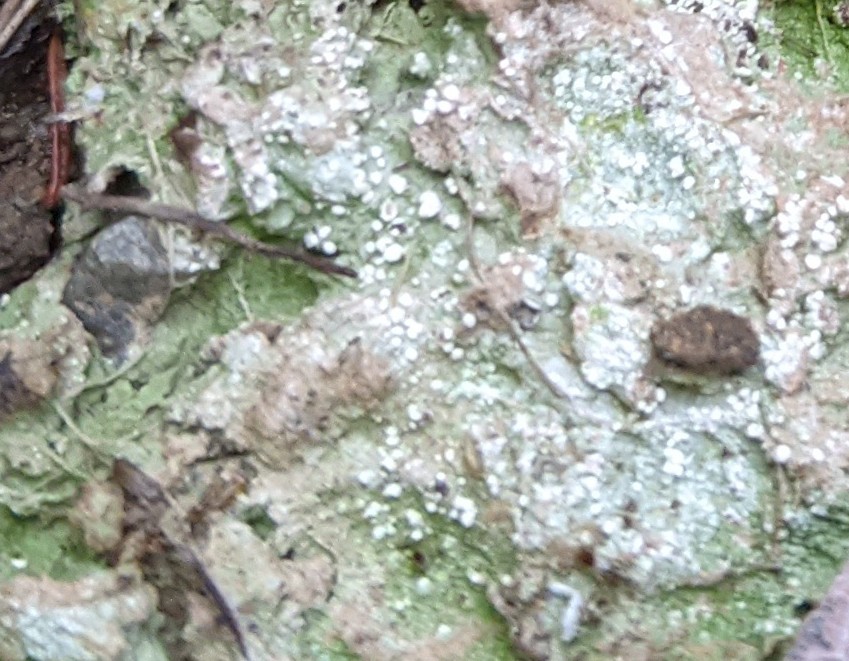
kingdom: Fungi
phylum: Ascomycota
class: Lecanoromycetes
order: Pertusariales
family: Icmadophilaceae
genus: Dibaeis
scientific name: Dibaeis baeomyces
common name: Pink earth lichen
